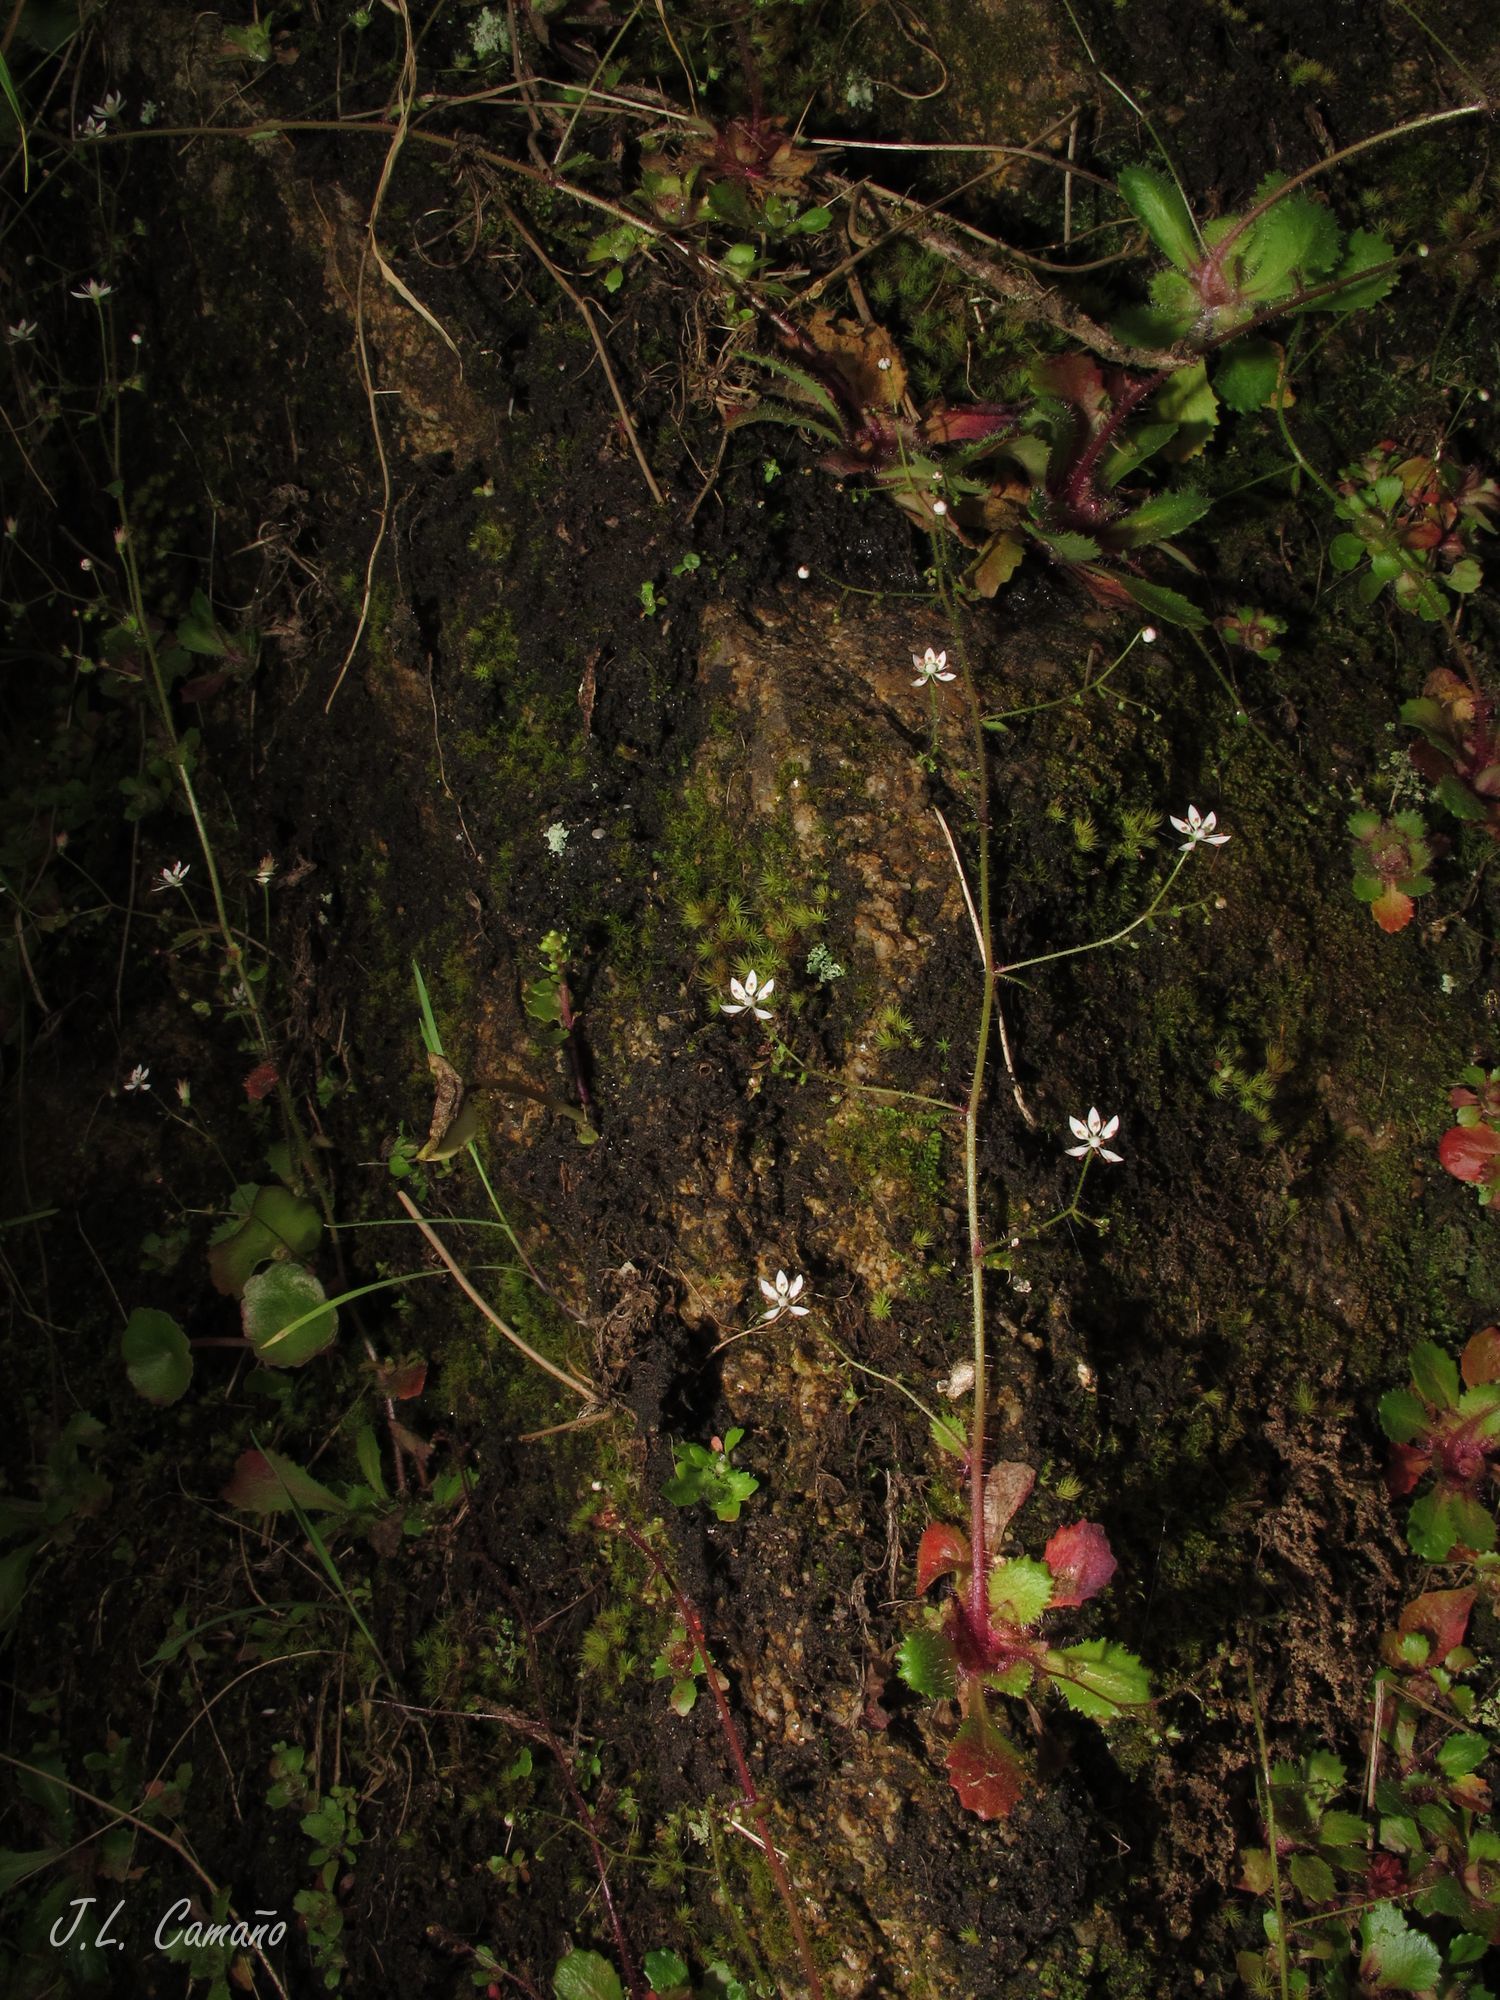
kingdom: Plantae
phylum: Tracheophyta
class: Magnoliopsida
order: Saxifragales
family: Saxifragaceae
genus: Micranthes
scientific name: Micranthes clusii
